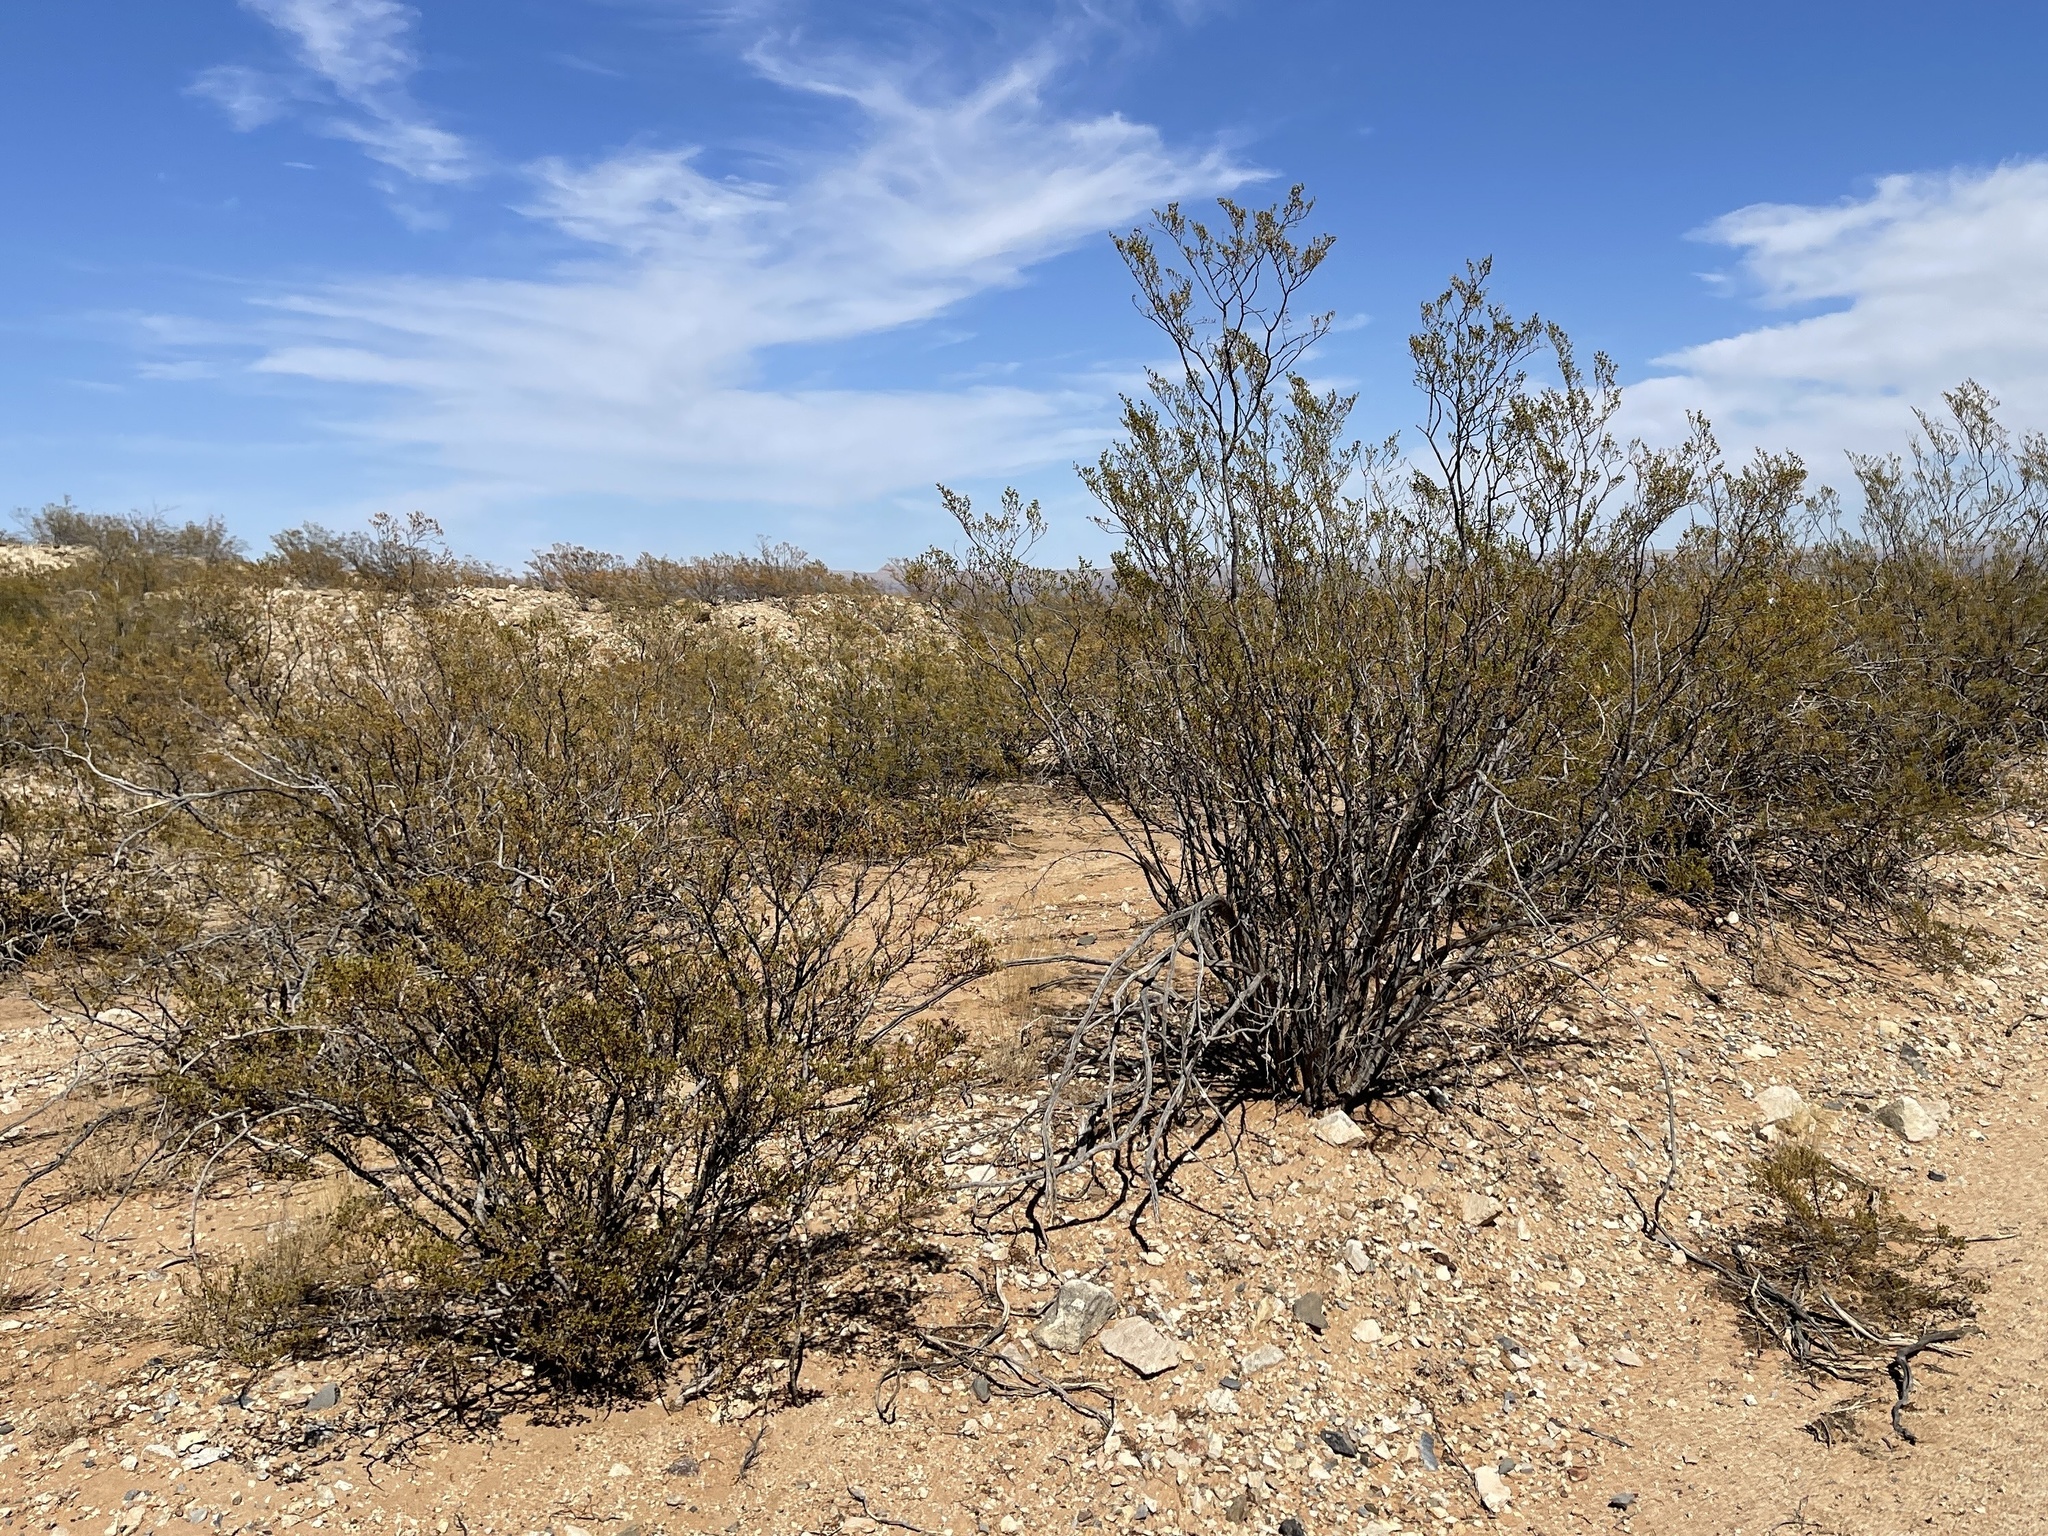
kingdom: Plantae
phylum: Tracheophyta
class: Magnoliopsida
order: Zygophyllales
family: Zygophyllaceae
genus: Larrea
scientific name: Larrea tridentata
